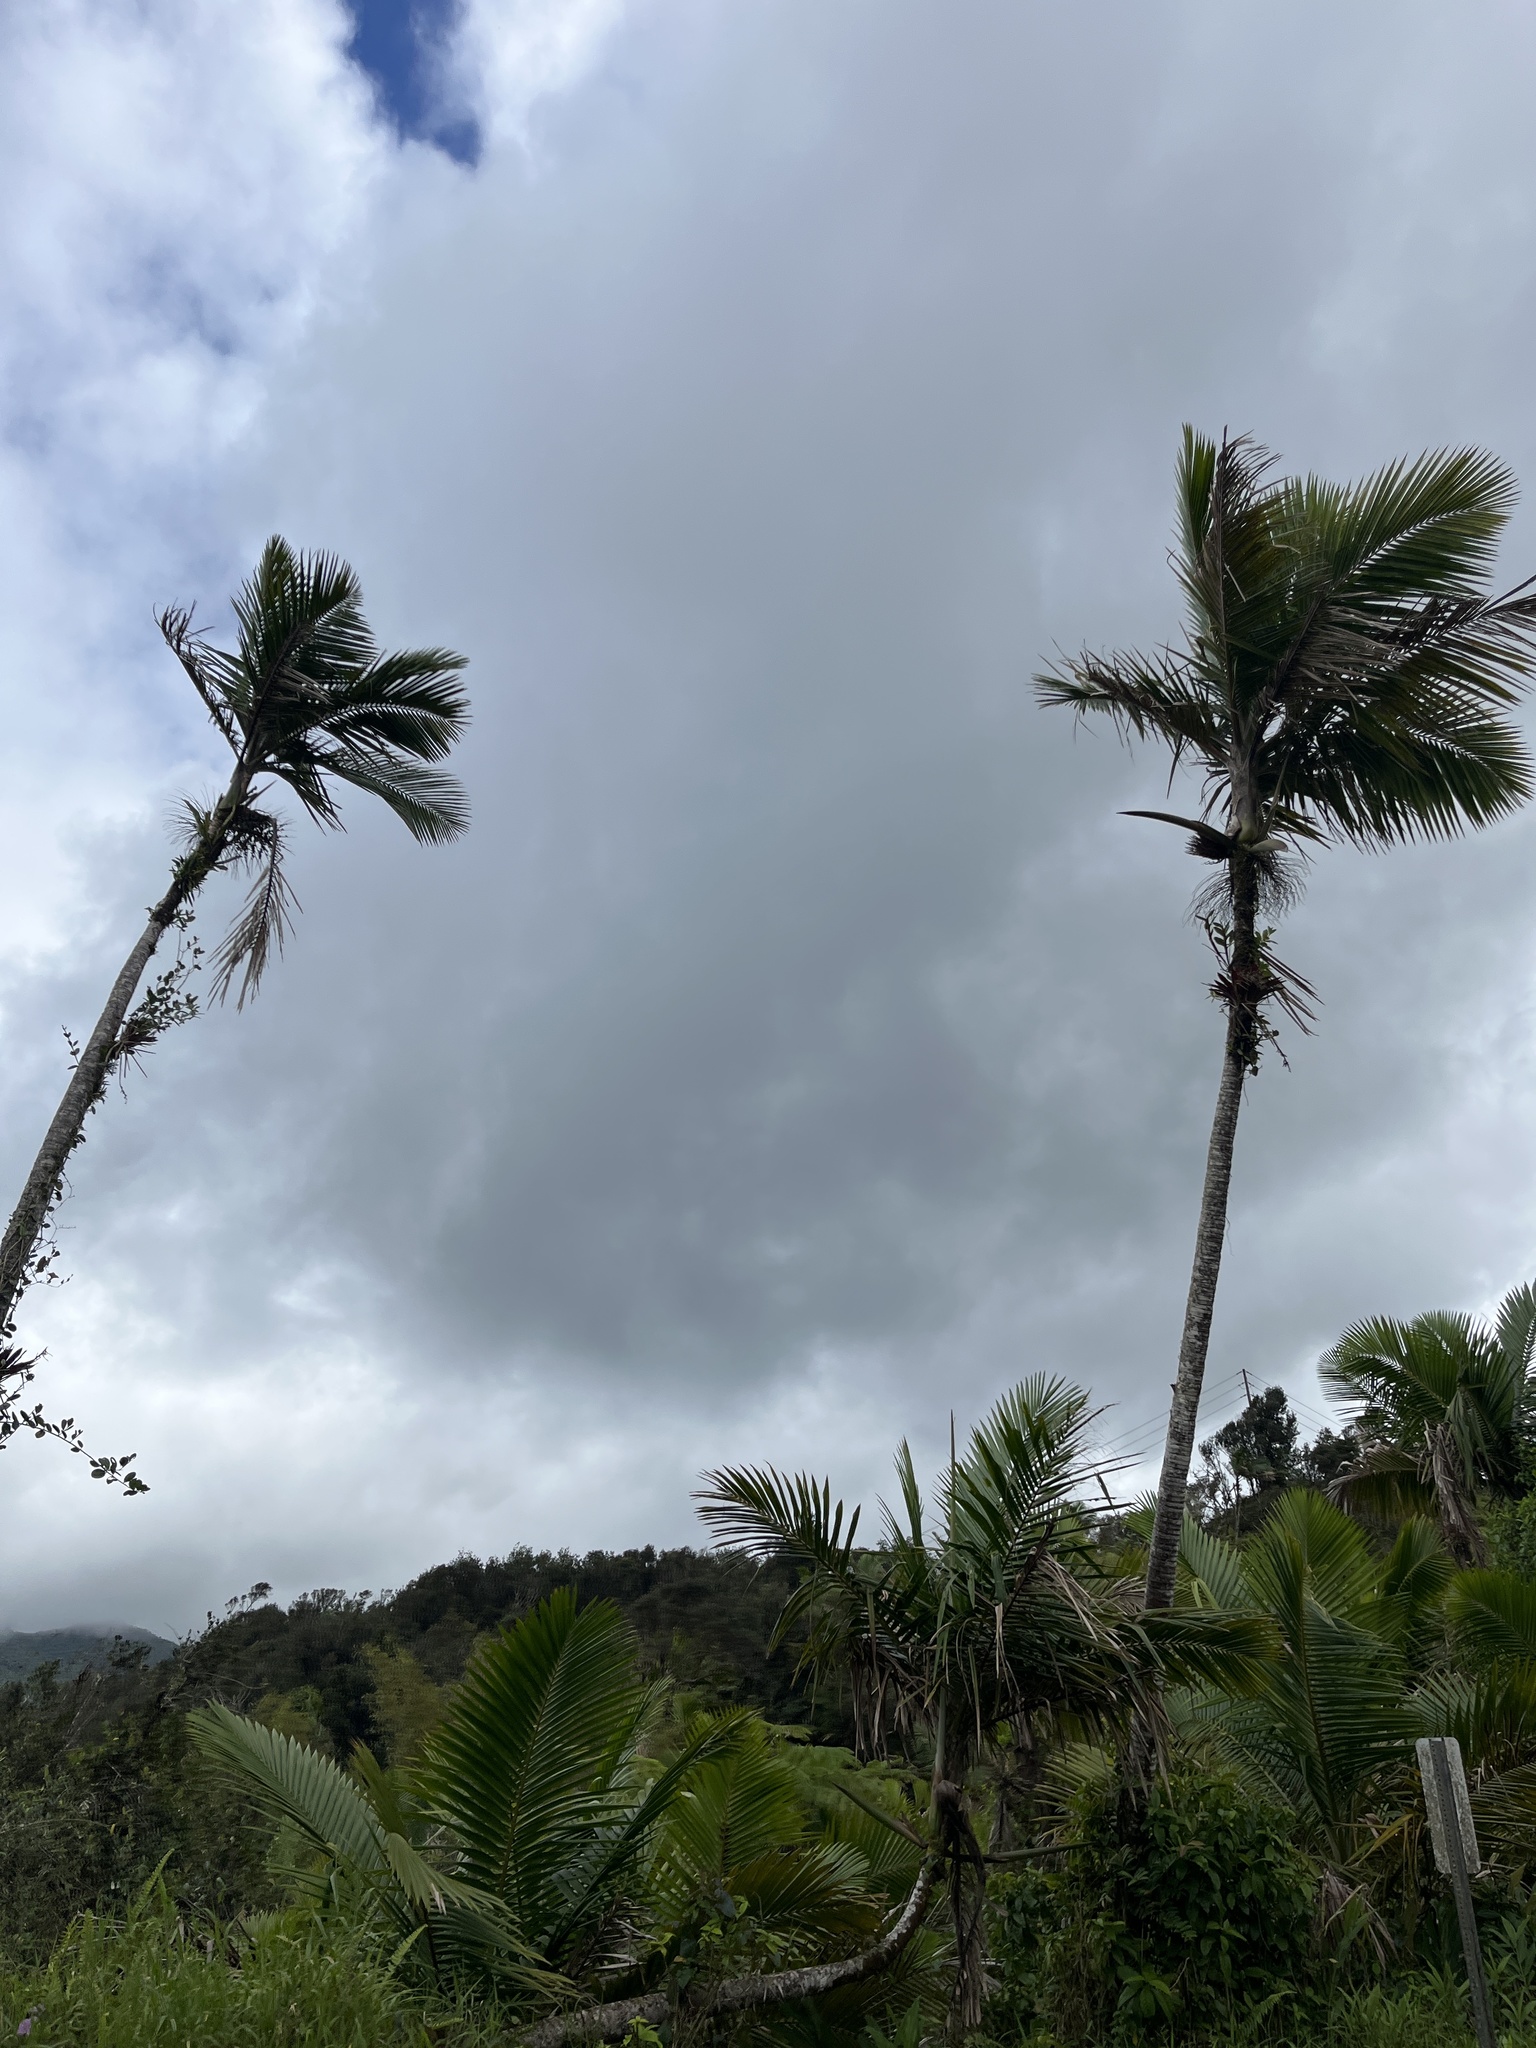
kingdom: Plantae
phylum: Tracheophyta
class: Liliopsida
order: Arecales
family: Arecaceae
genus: Prestoea
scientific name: Prestoea acuminata
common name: Sierran palm
